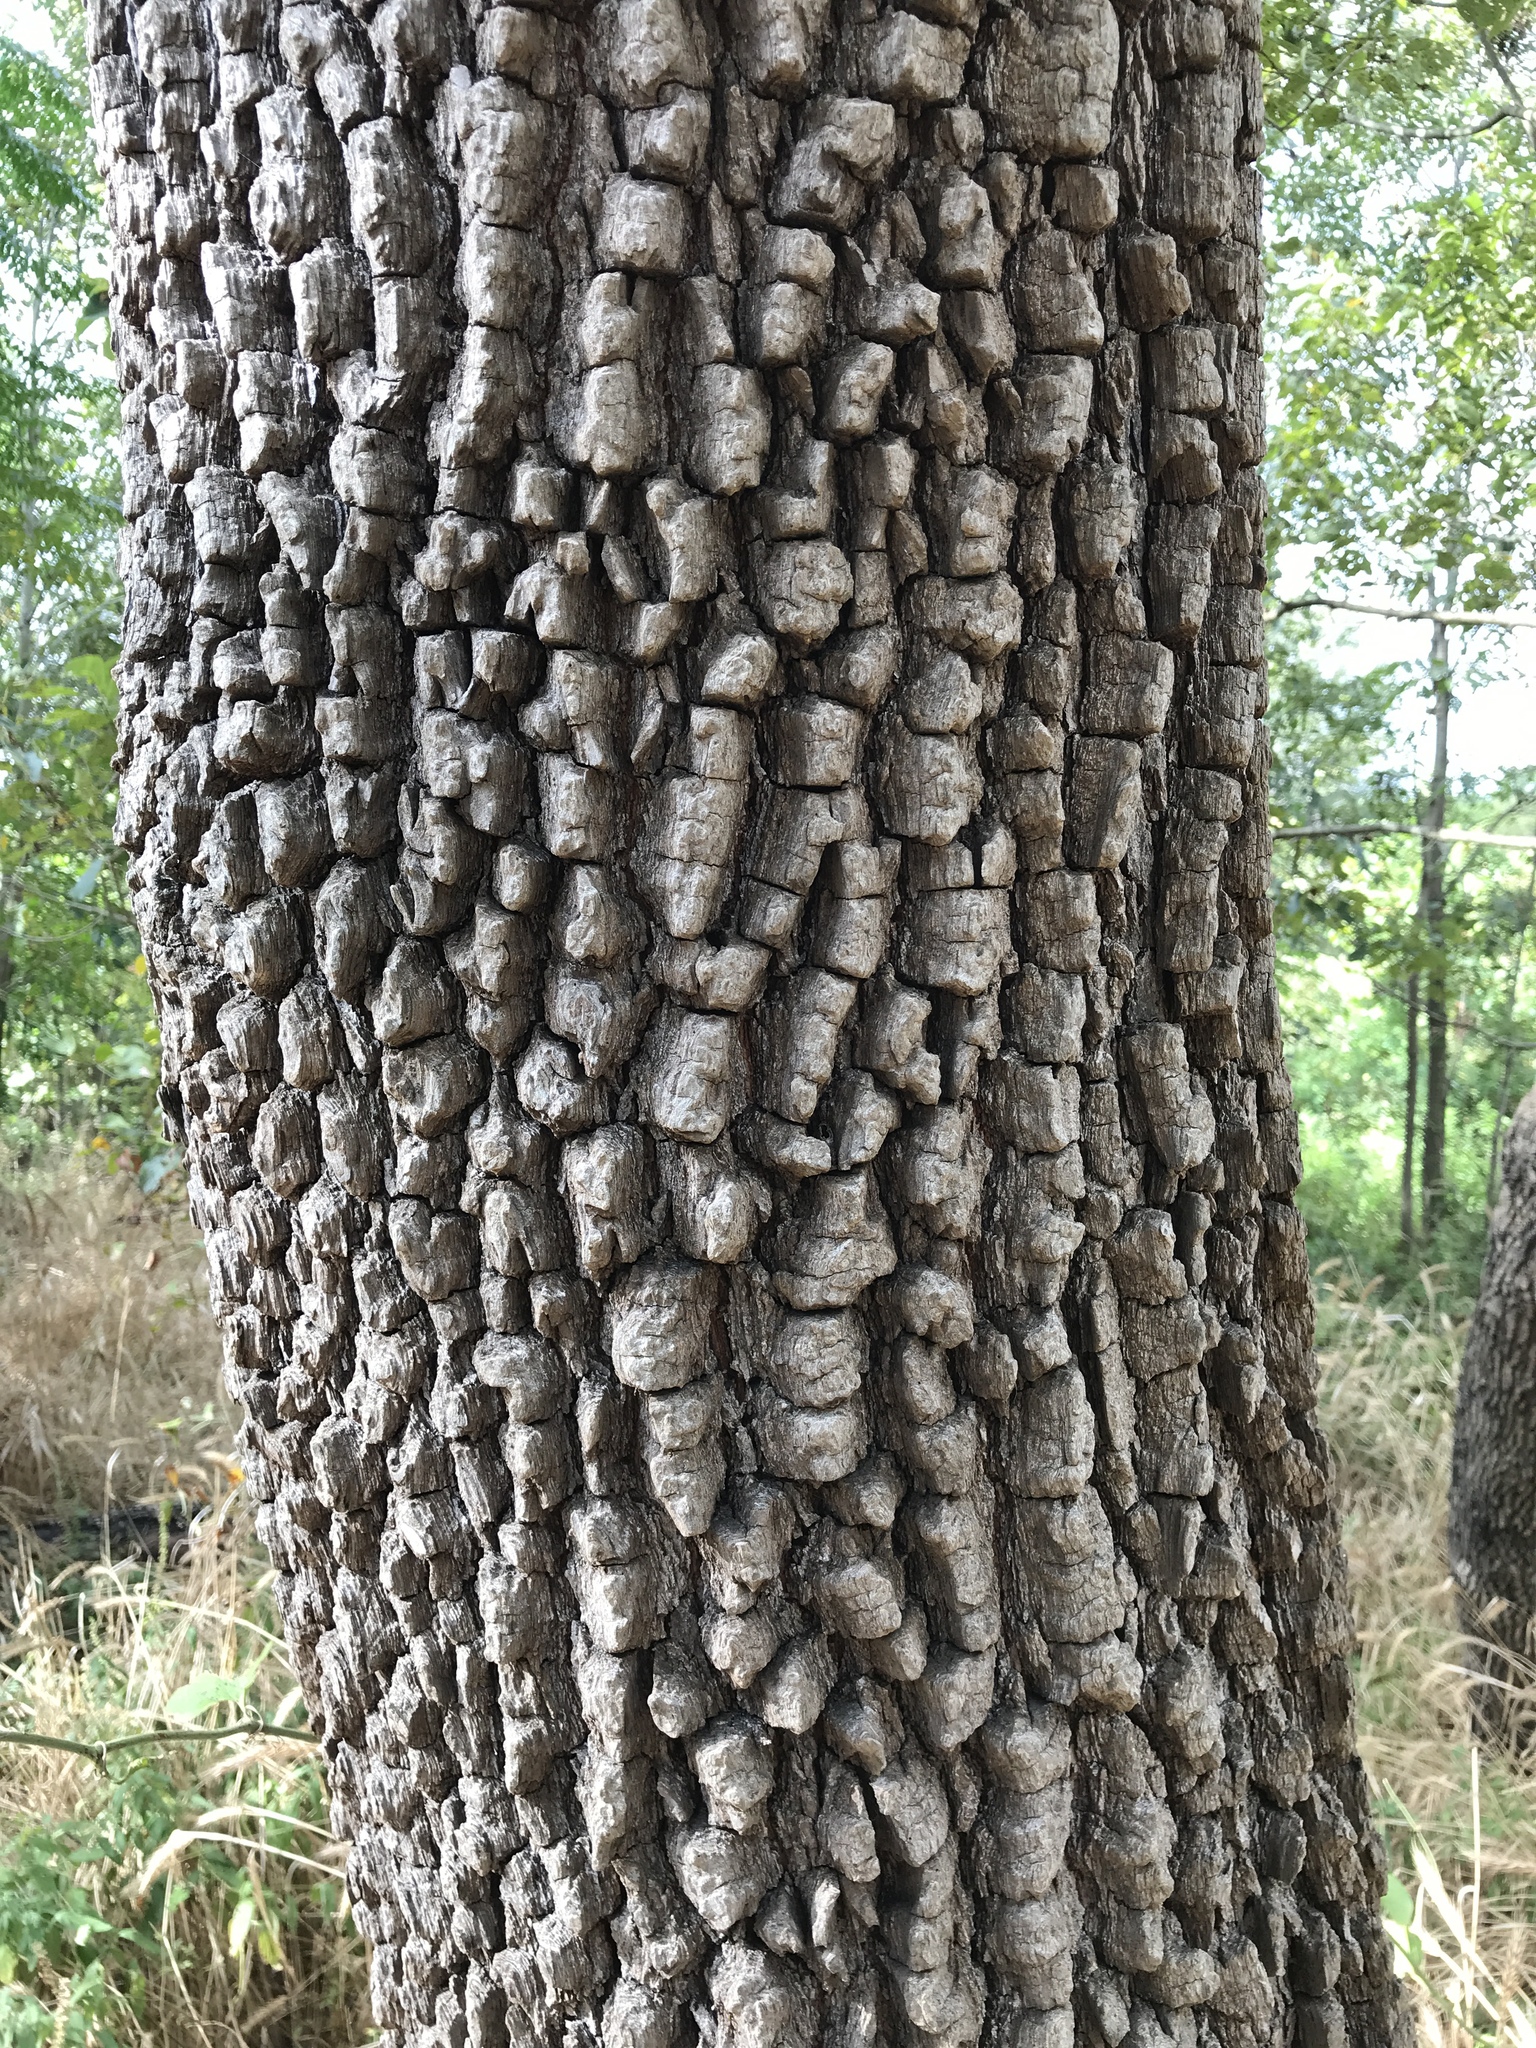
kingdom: Plantae
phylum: Tracheophyta
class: Magnoliopsida
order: Ericales
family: Ebenaceae
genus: Diospyros
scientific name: Diospyros virginiana
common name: Persimmon
